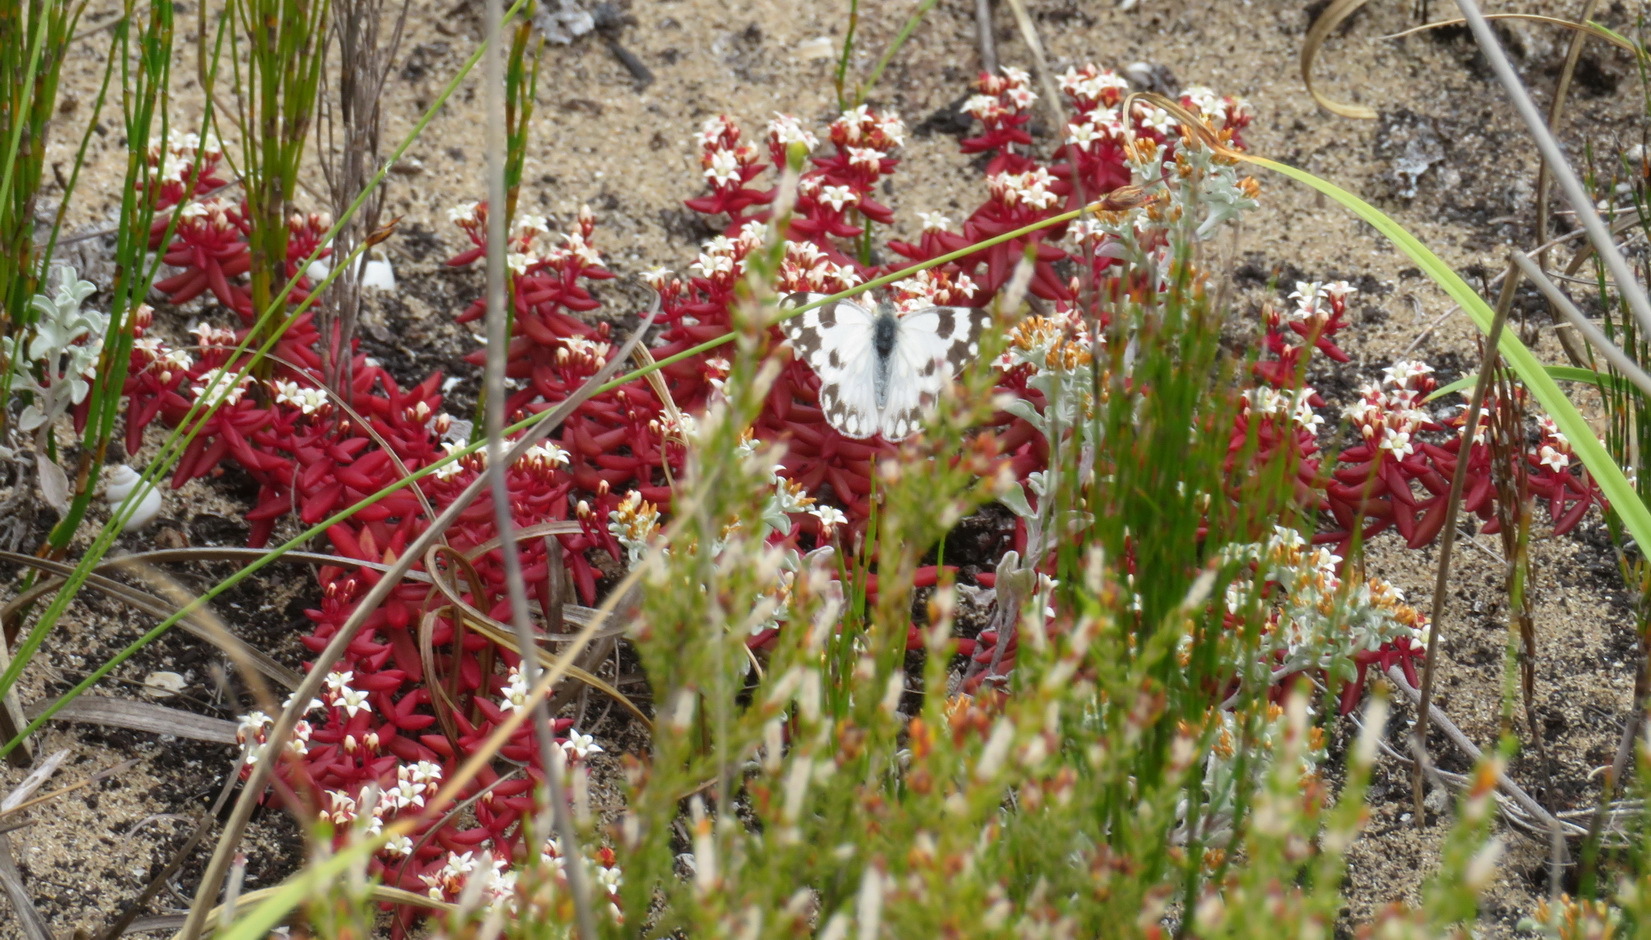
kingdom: Plantae
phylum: Tracheophyta
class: Magnoliopsida
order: Saxifragales
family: Crassulaceae
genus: Crassula
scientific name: Crassula expansa
